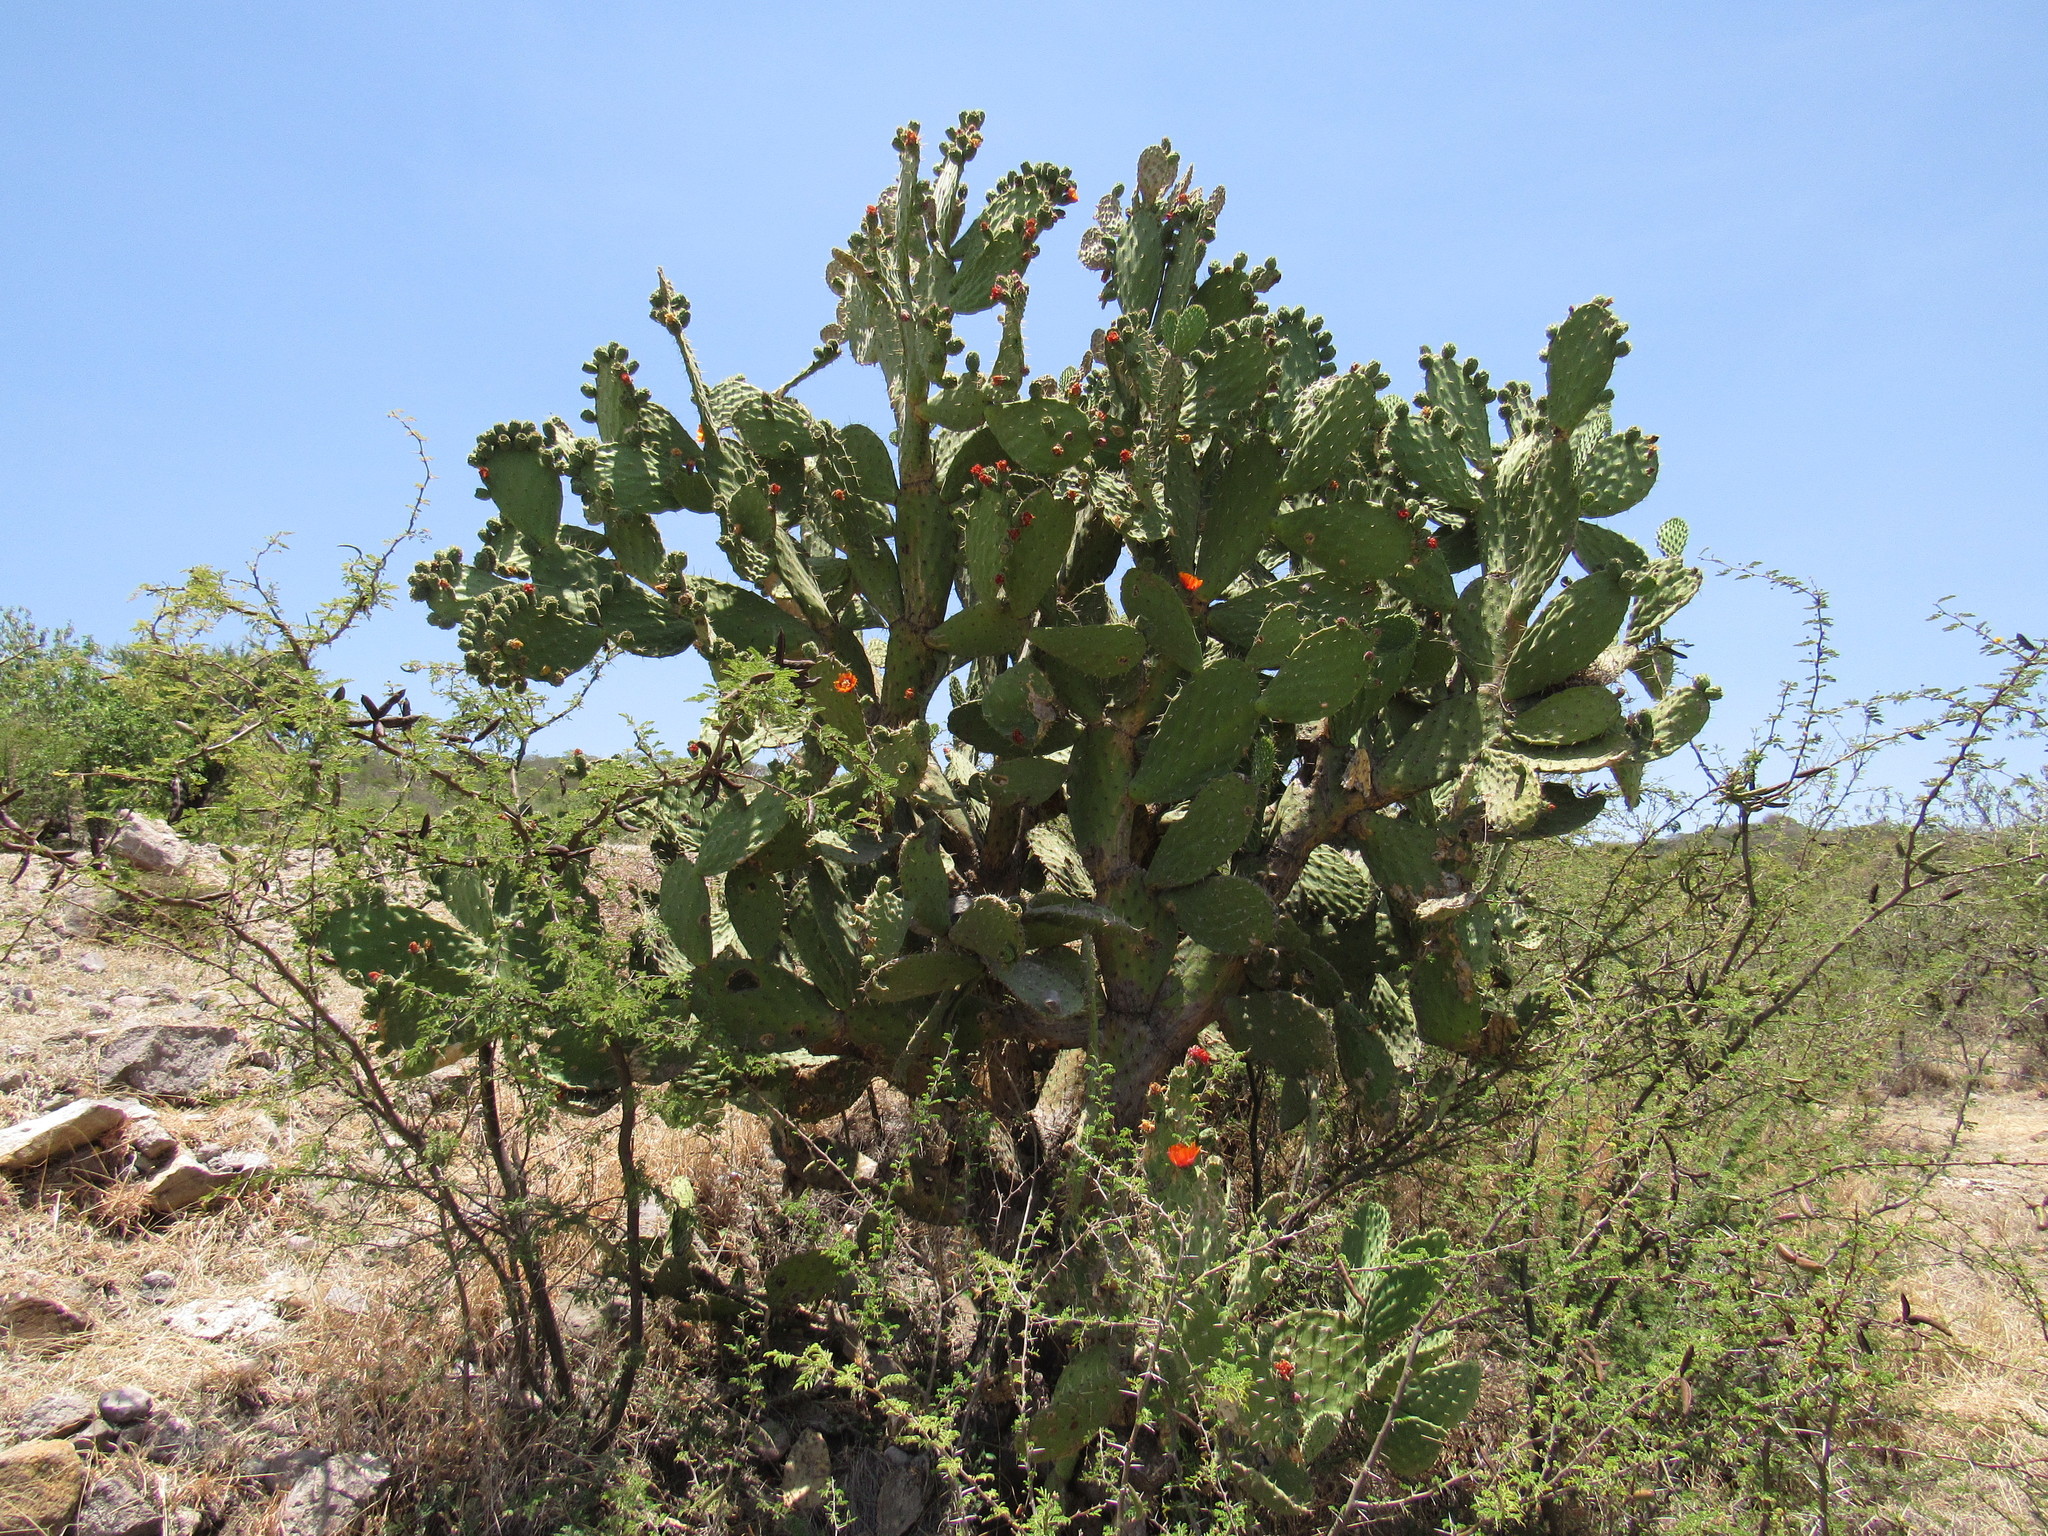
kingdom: Plantae
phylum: Tracheophyta
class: Magnoliopsida
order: Caryophyllales
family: Cactaceae
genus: Opuntia
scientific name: Opuntia lasiacantha
